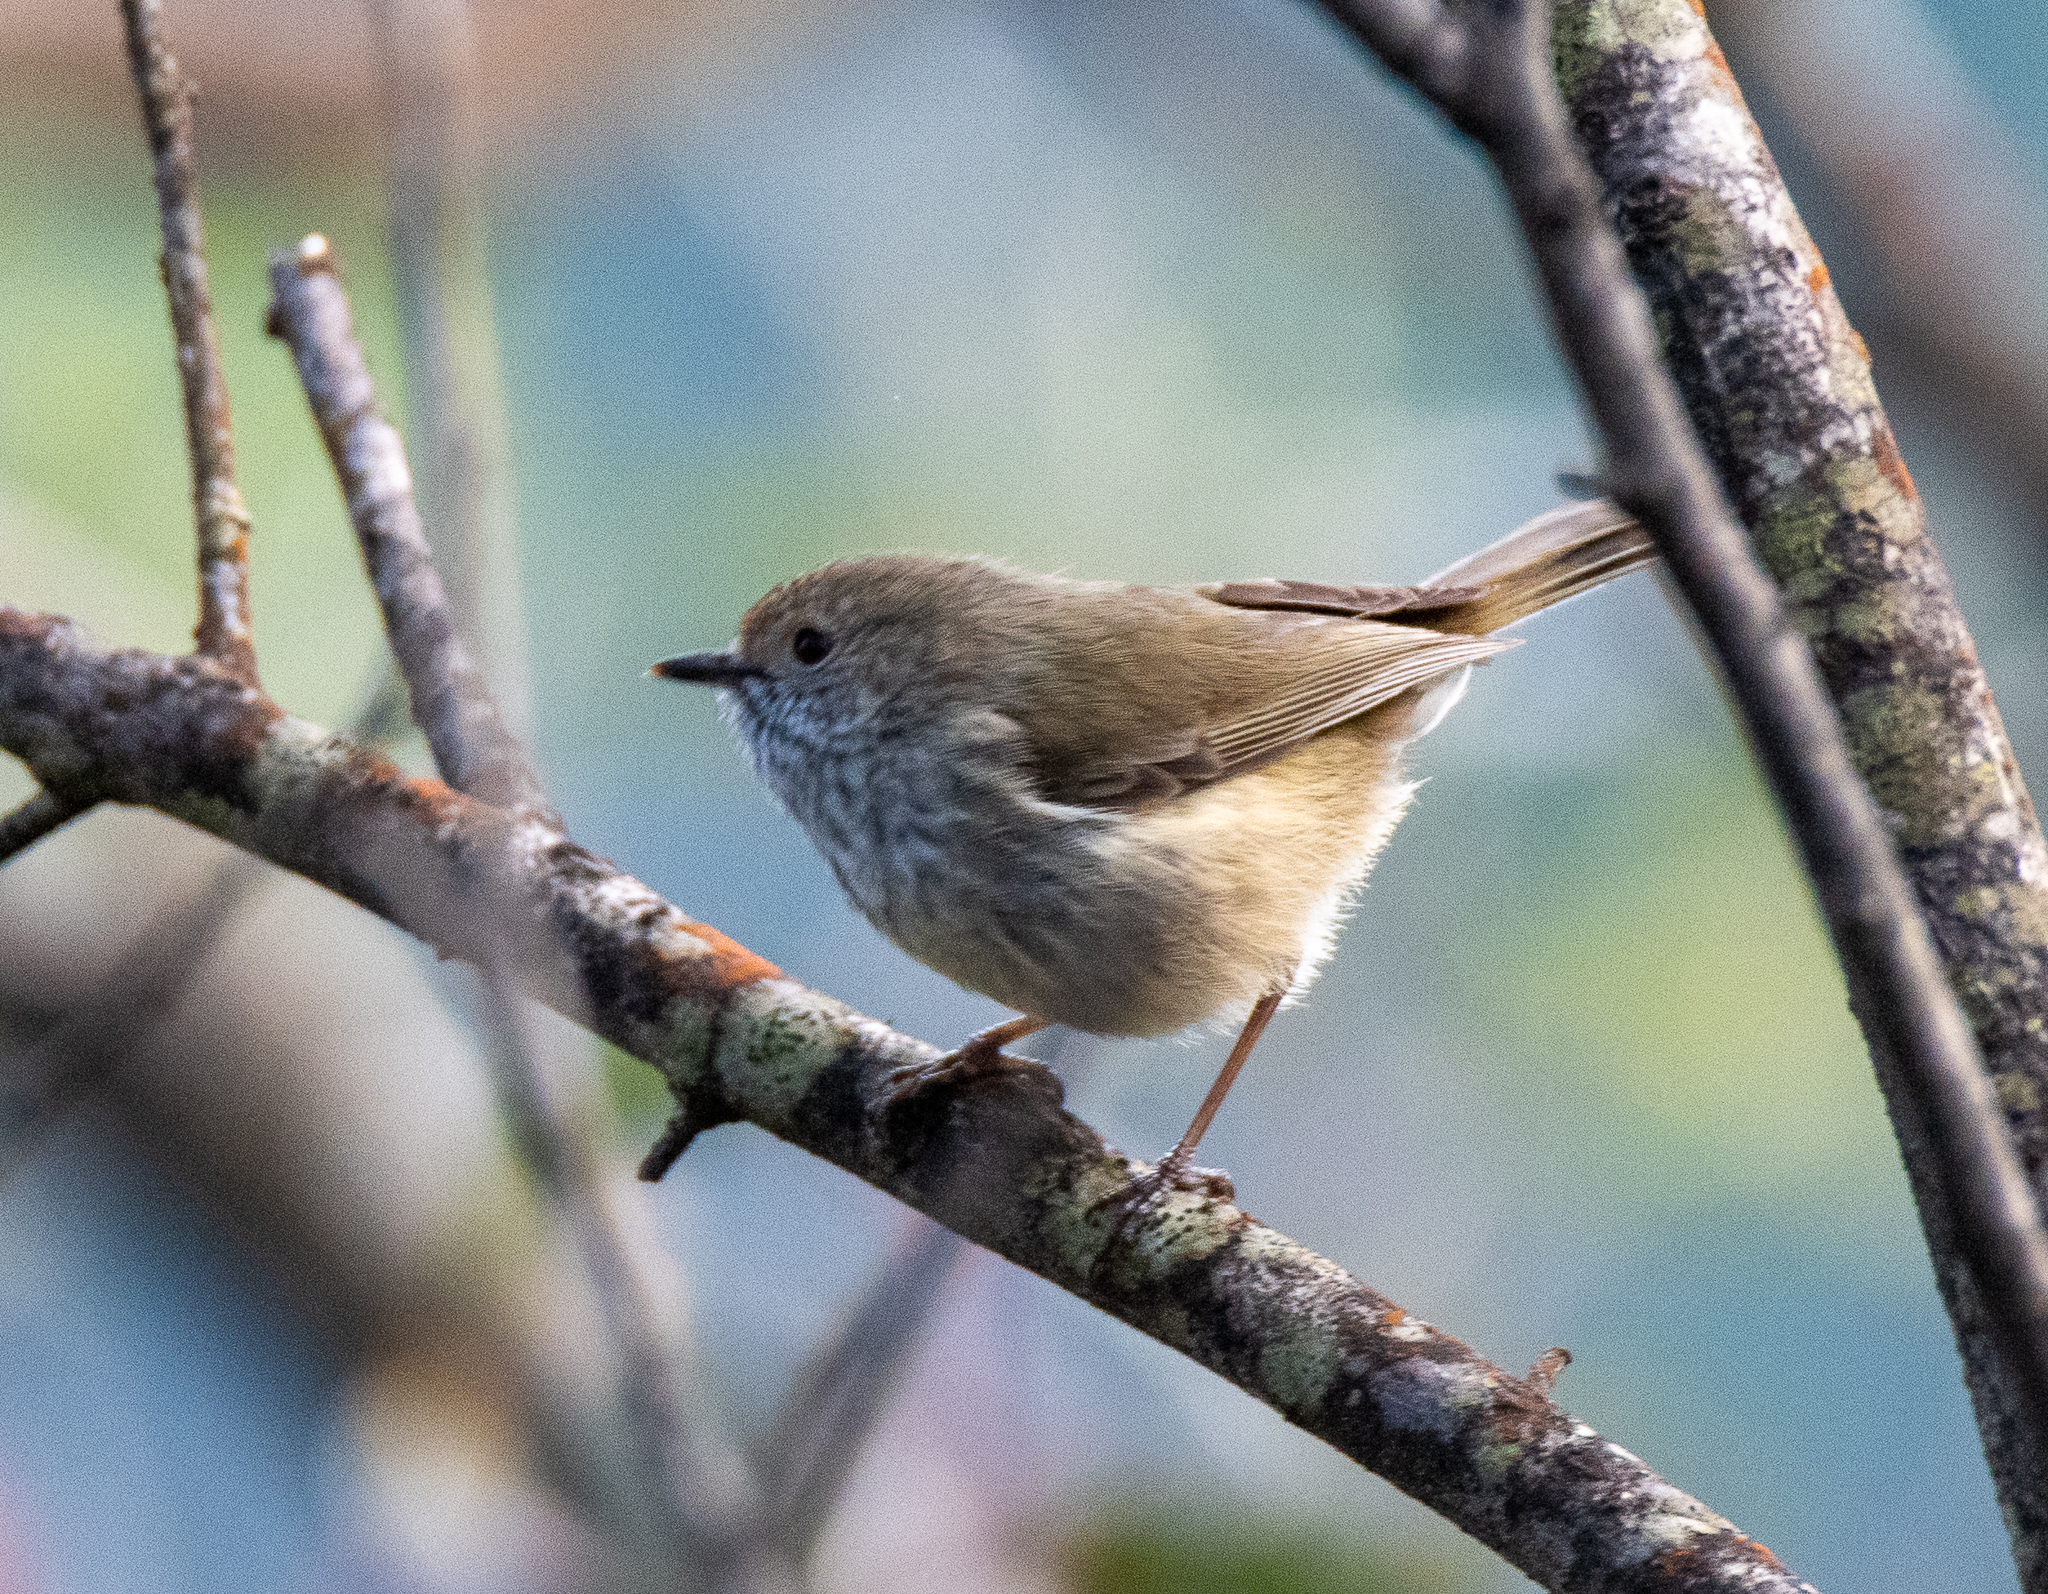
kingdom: Animalia
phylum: Chordata
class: Aves
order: Passeriformes
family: Acanthizidae
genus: Acanthiza
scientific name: Acanthiza pusilla
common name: Brown thornbill
